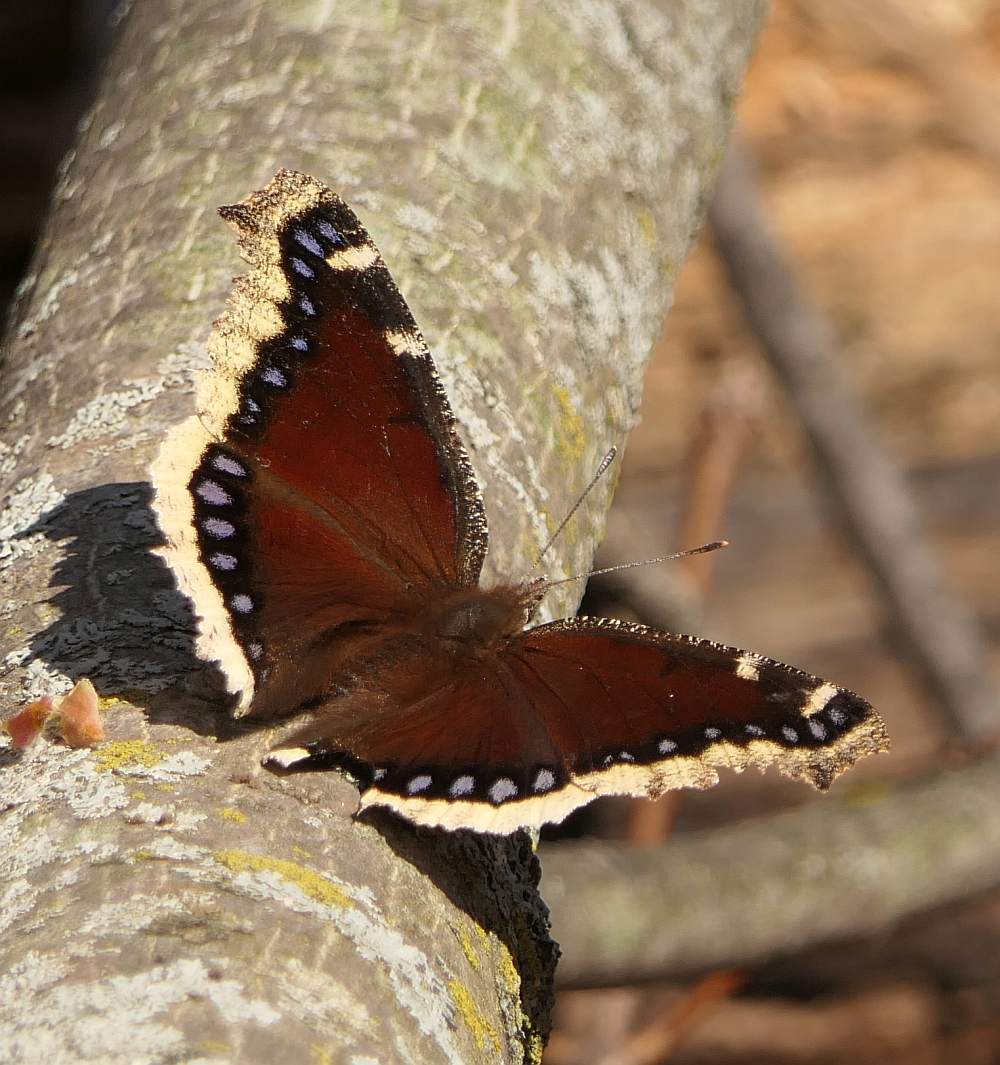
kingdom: Animalia
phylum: Arthropoda
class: Insecta
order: Lepidoptera
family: Nymphalidae
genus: Nymphalis
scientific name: Nymphalis antiopa
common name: Camberwell beauty
